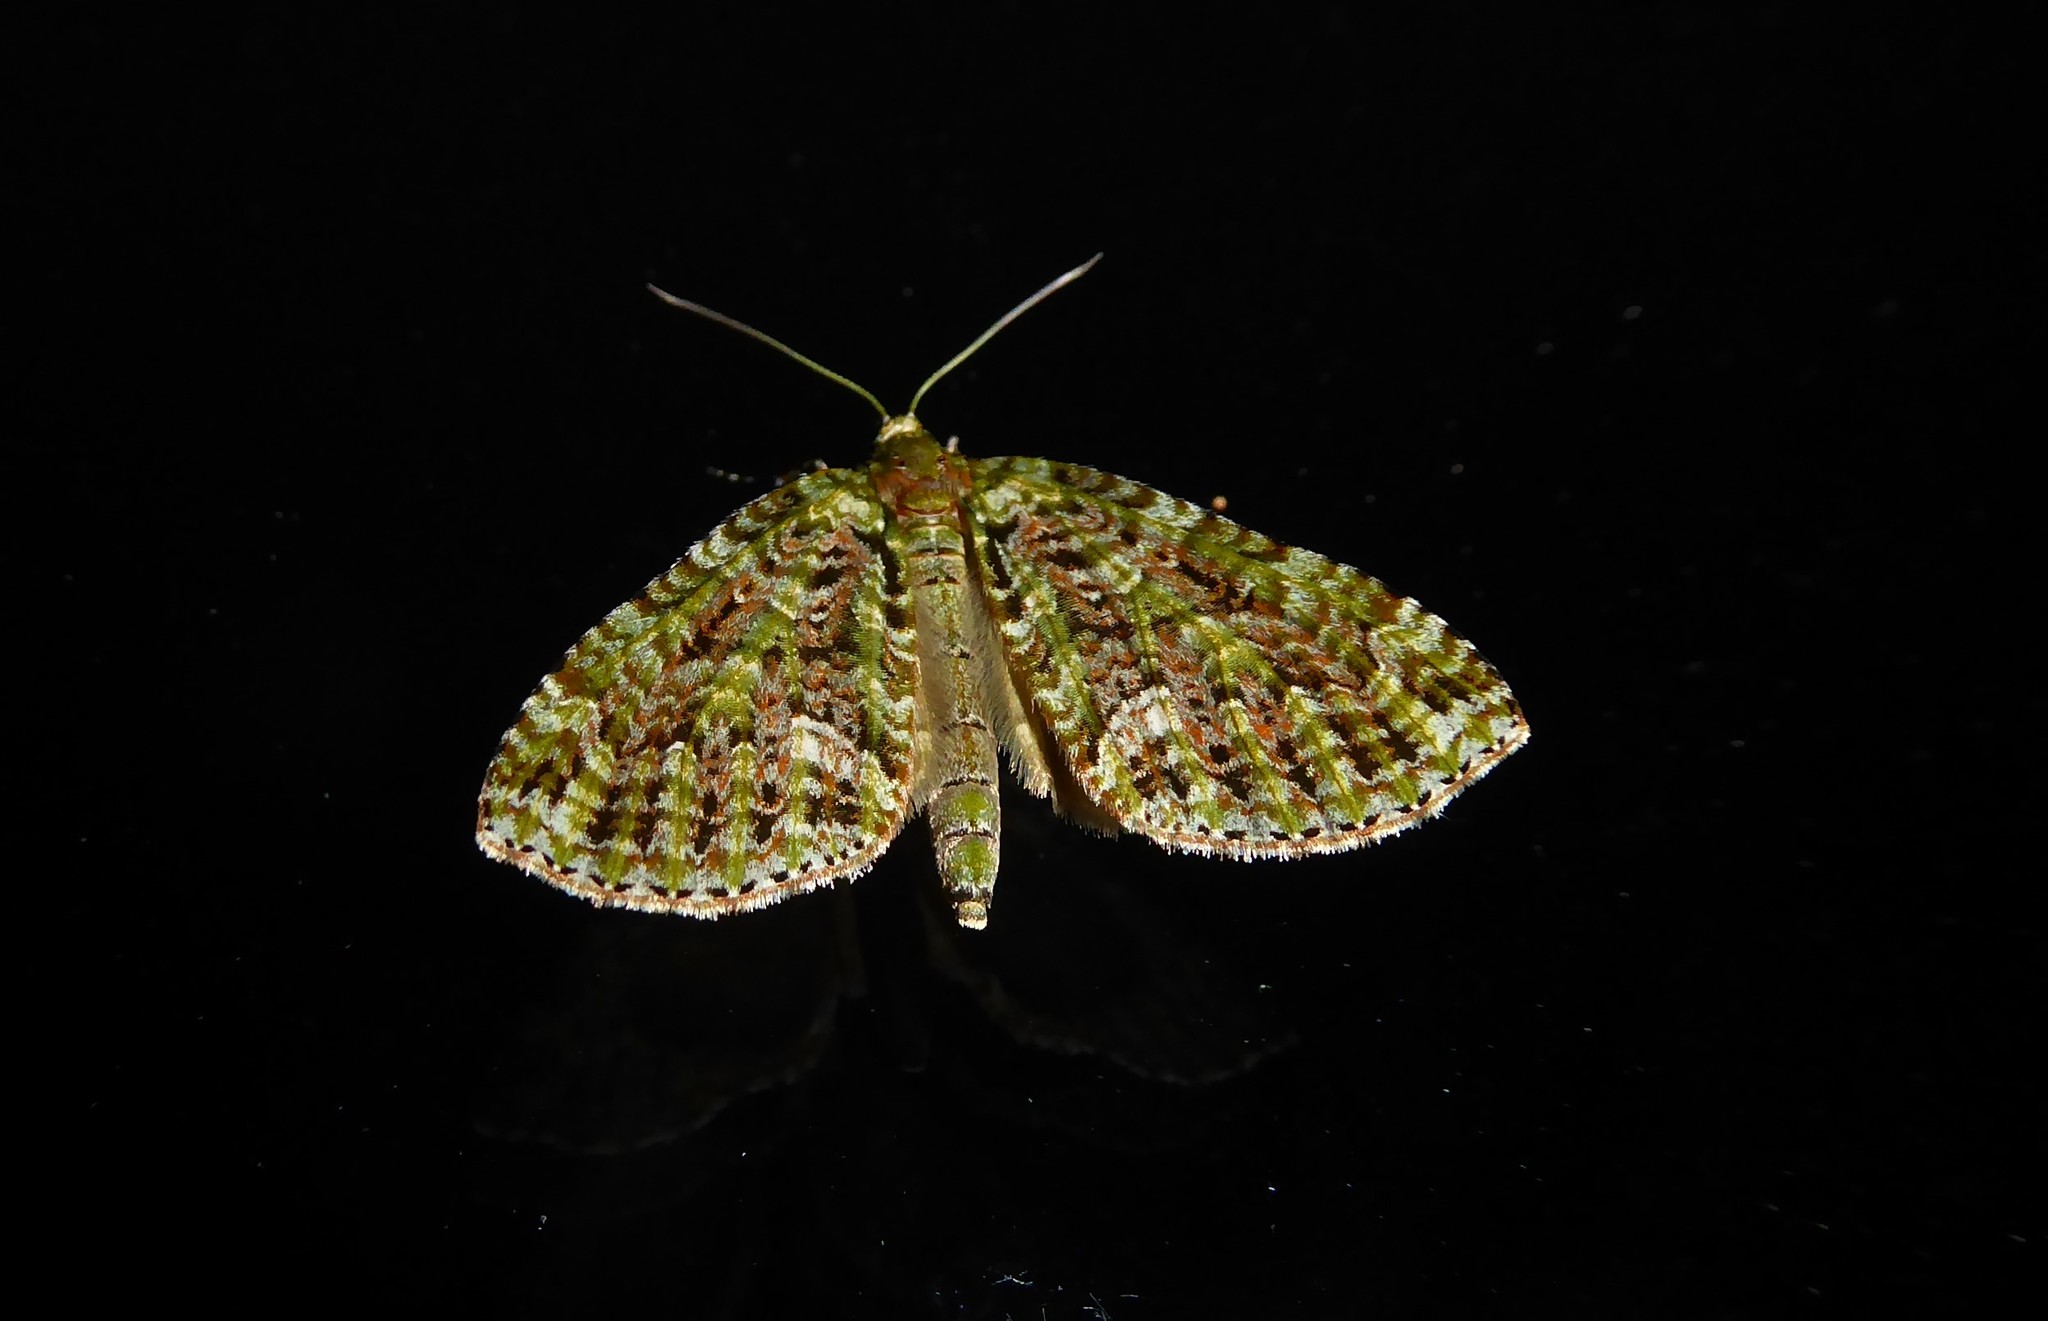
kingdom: Animalia
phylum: Arthropoda
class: Insecta
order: Lepidoptera
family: Geometridae
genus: Tatosoma
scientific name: Tatosoma agrionata
